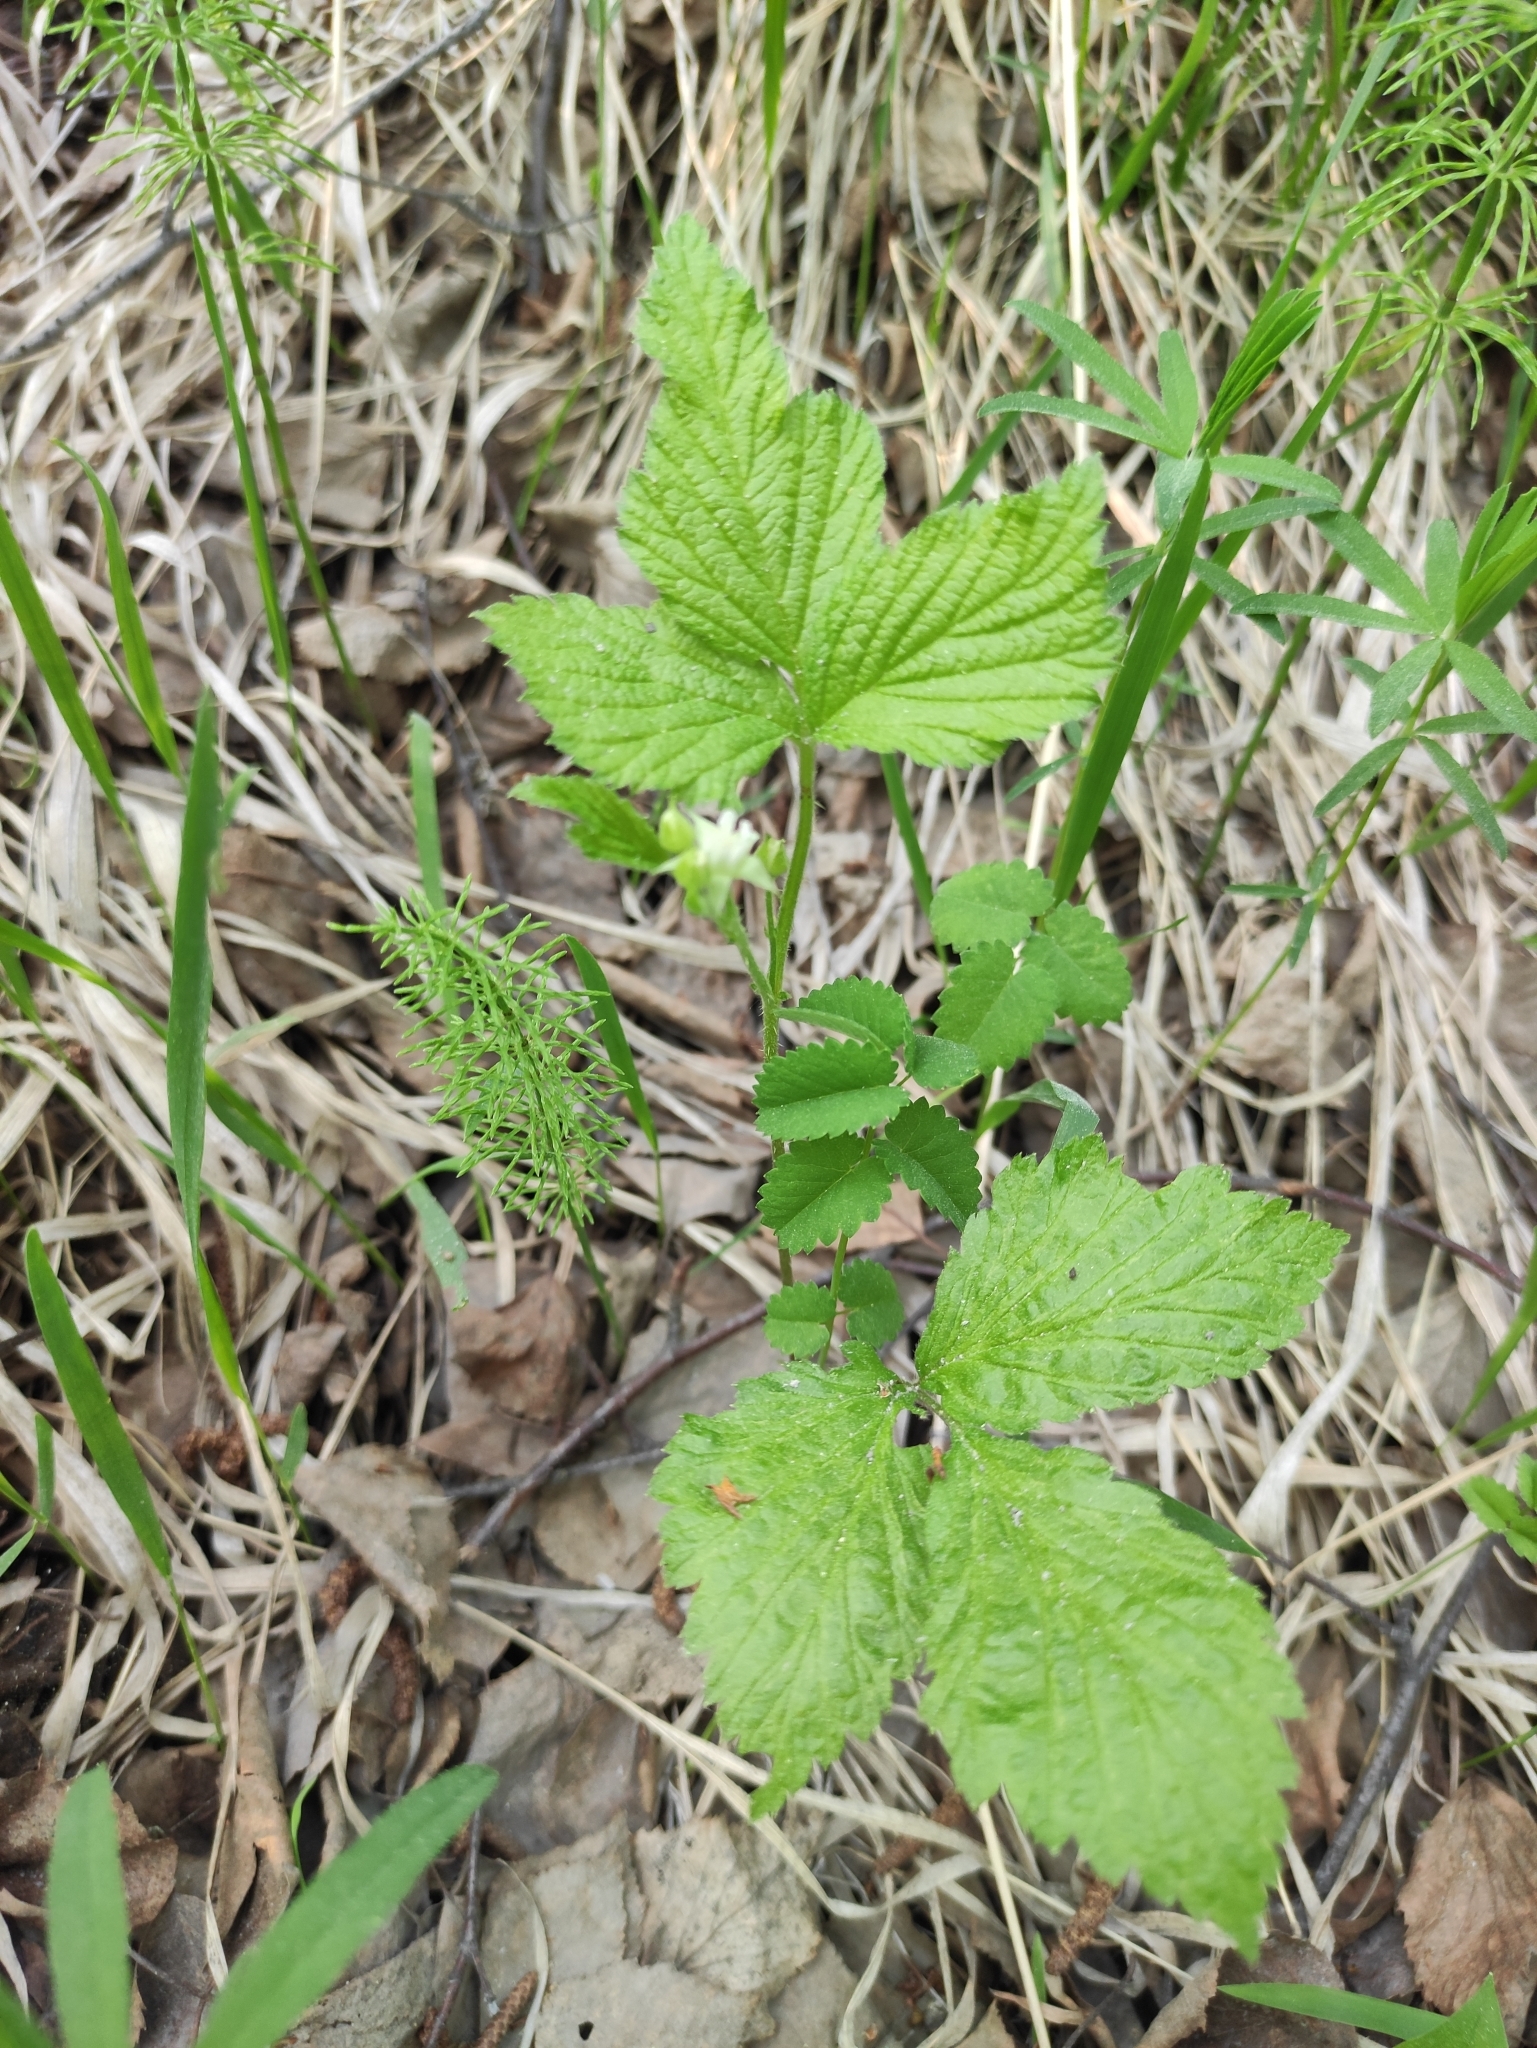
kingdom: Plantae
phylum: Tracheophyta
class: Magnoliopsida
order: Rosales
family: Rosaceae
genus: Rubus
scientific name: Rubus saxatilis
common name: Stone bramble
